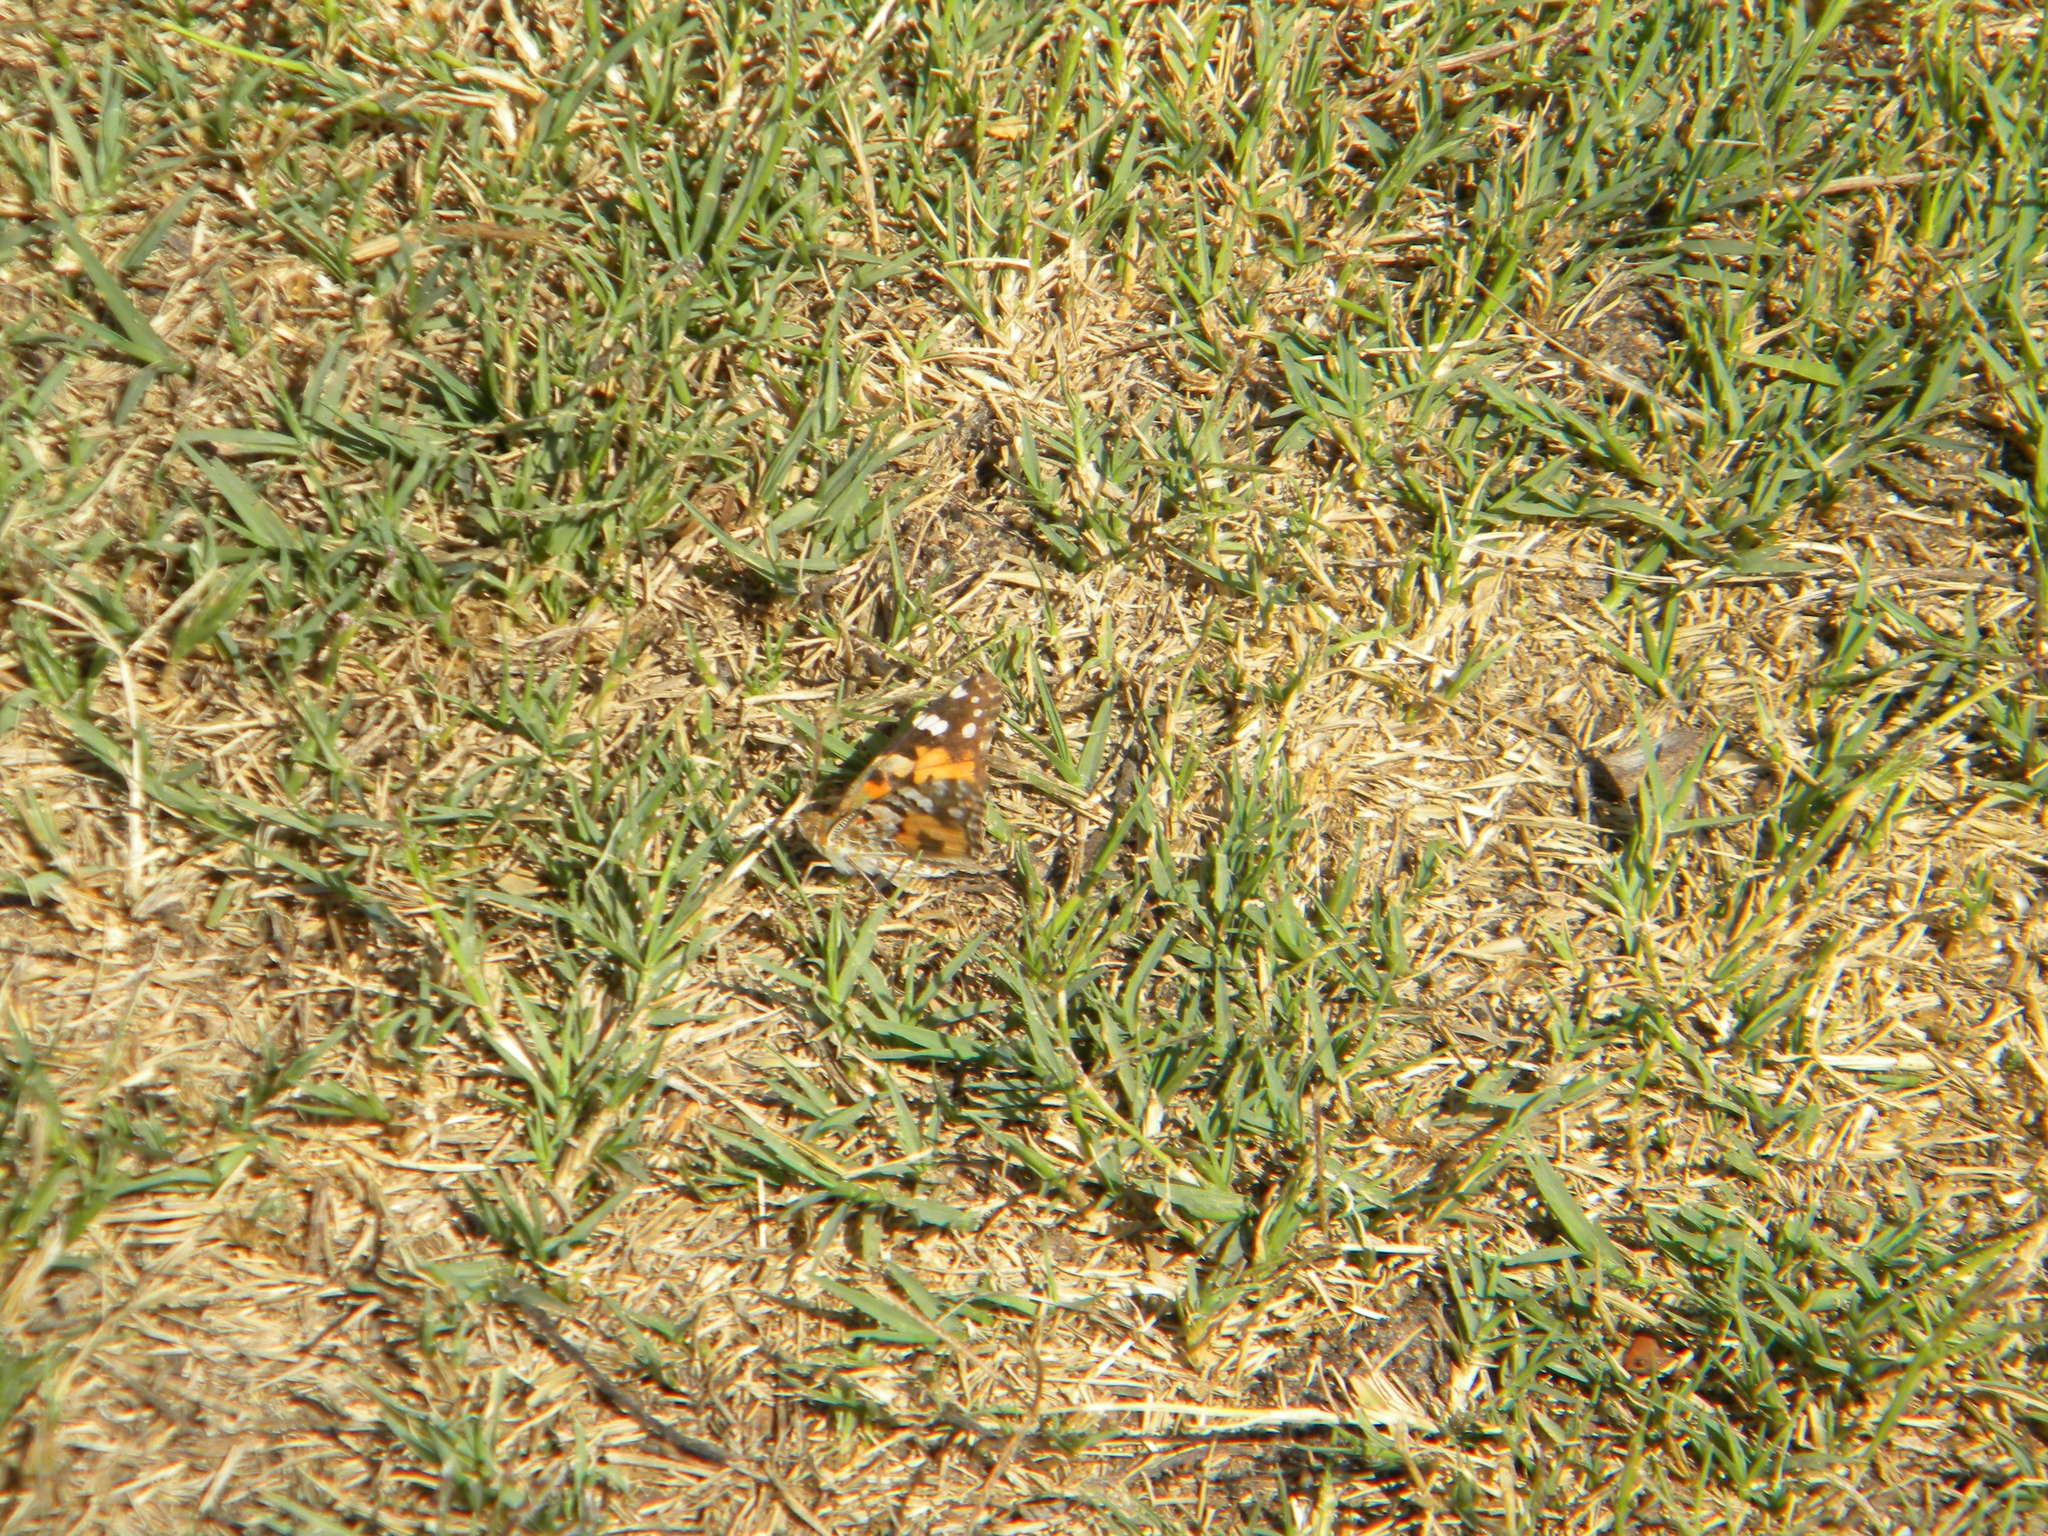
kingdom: Animalia
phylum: Arthropoda
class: Insecta
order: Lepidoptera
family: Nymphalidae
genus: Vanessa
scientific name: Vanessa cardui
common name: Painted lady
